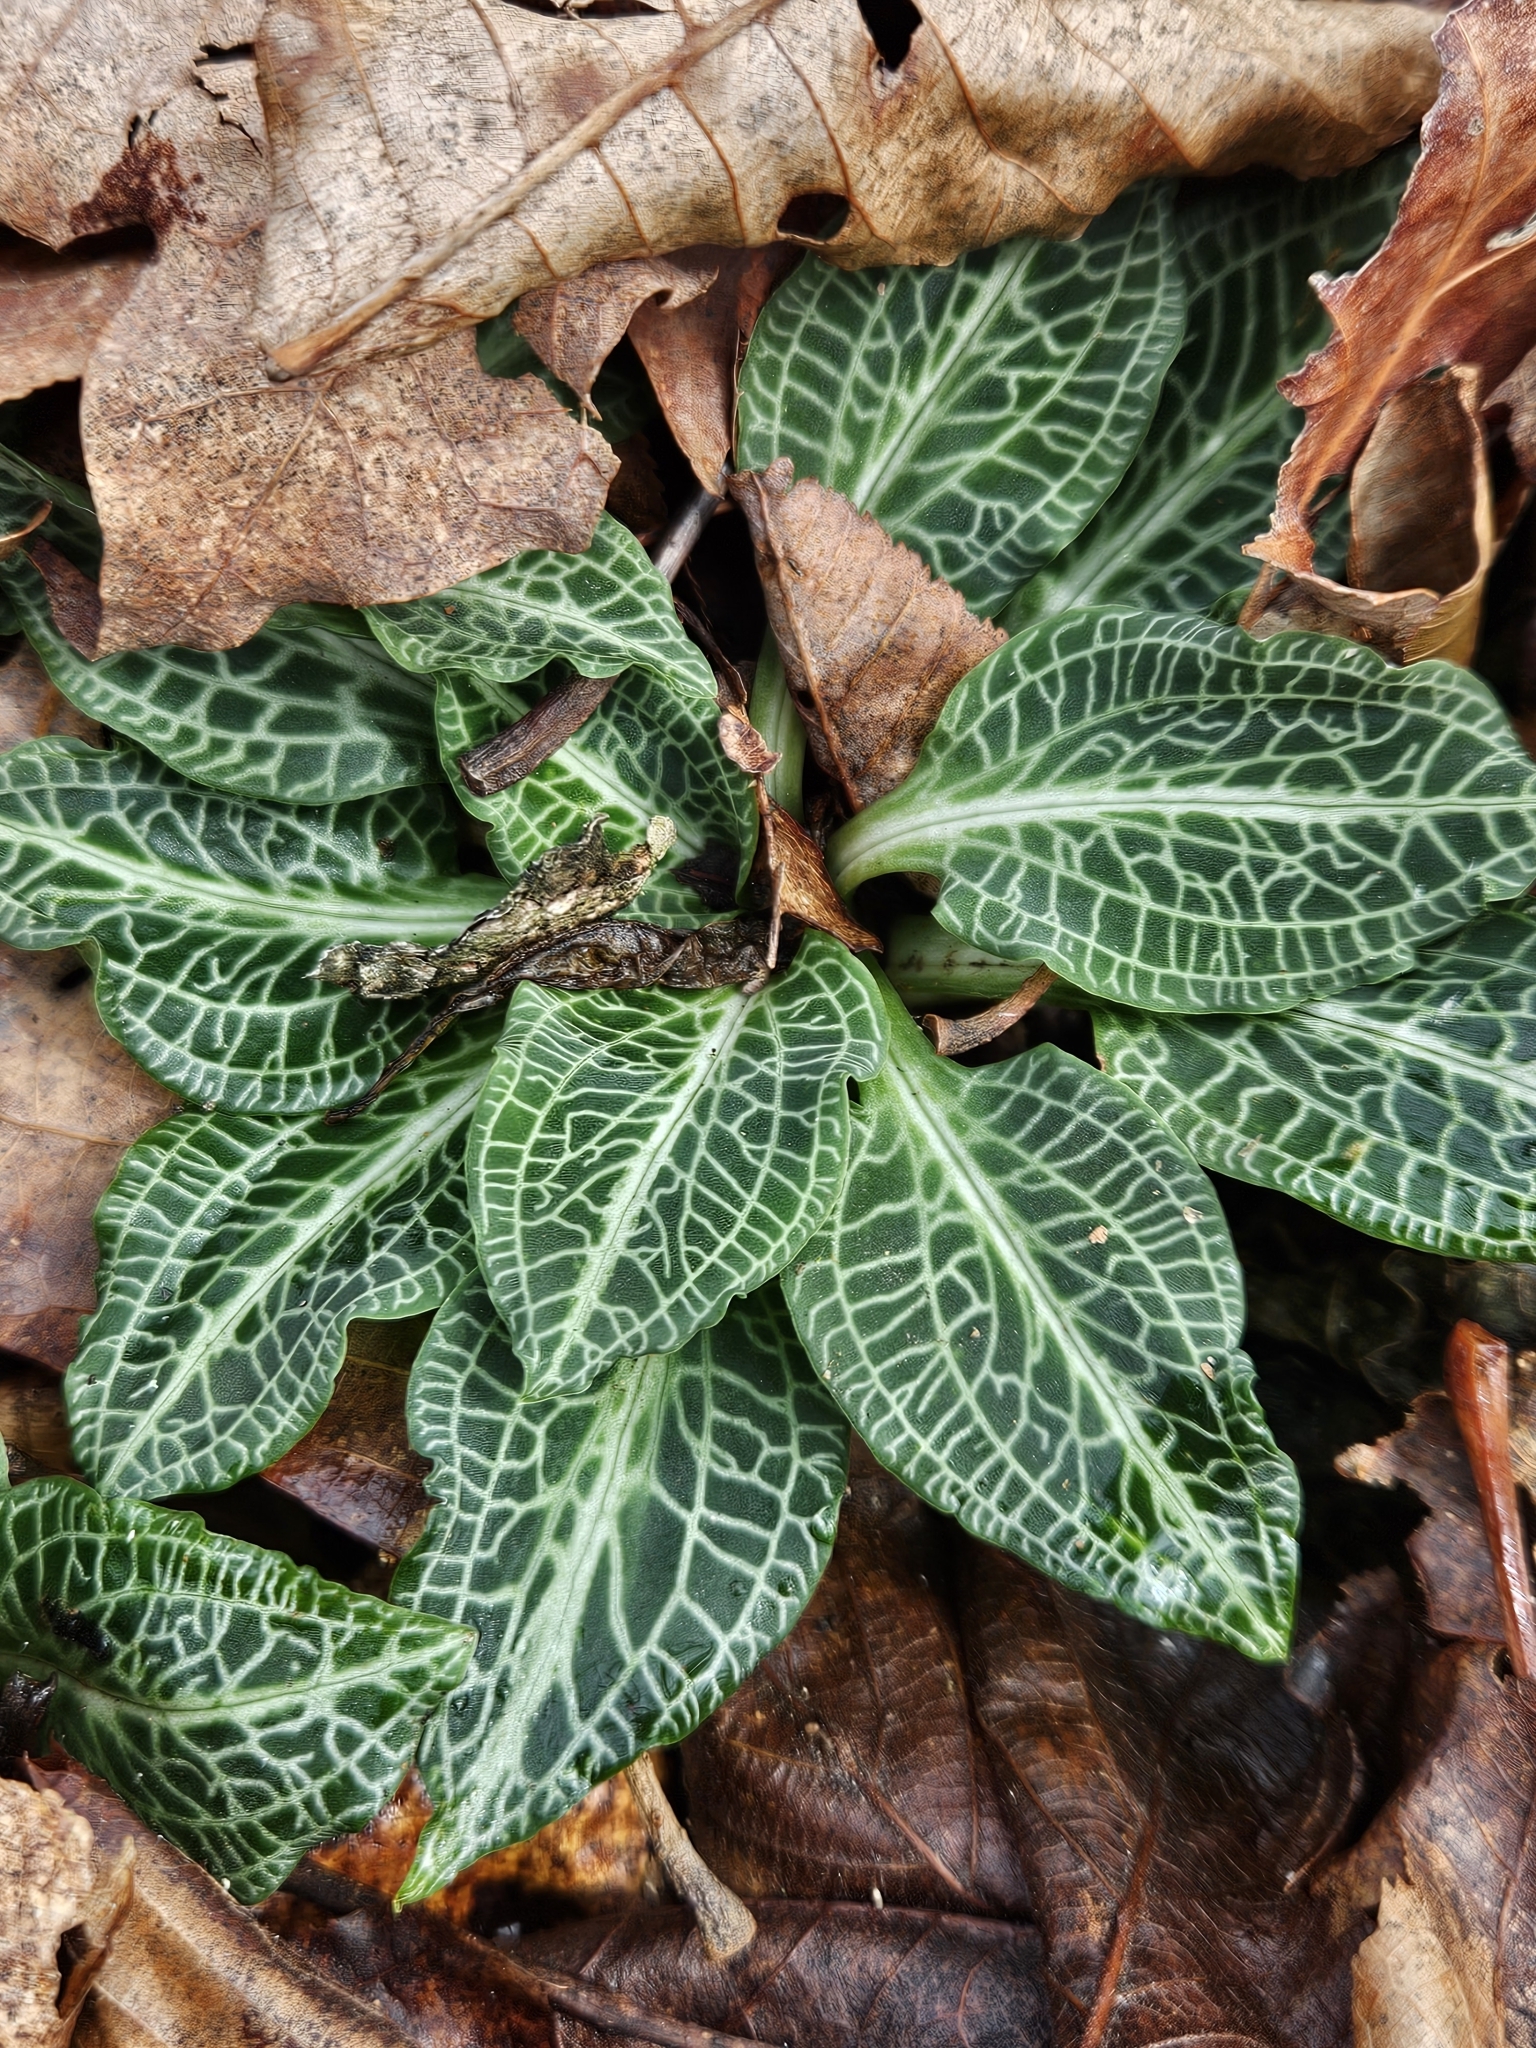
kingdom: Plantae
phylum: Tracheophyta
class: Liliopsida
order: Asparagales
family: Orchidaceae
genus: Goodyera
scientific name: Goodyera pubescens
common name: Downy rattlesnake-plantain
